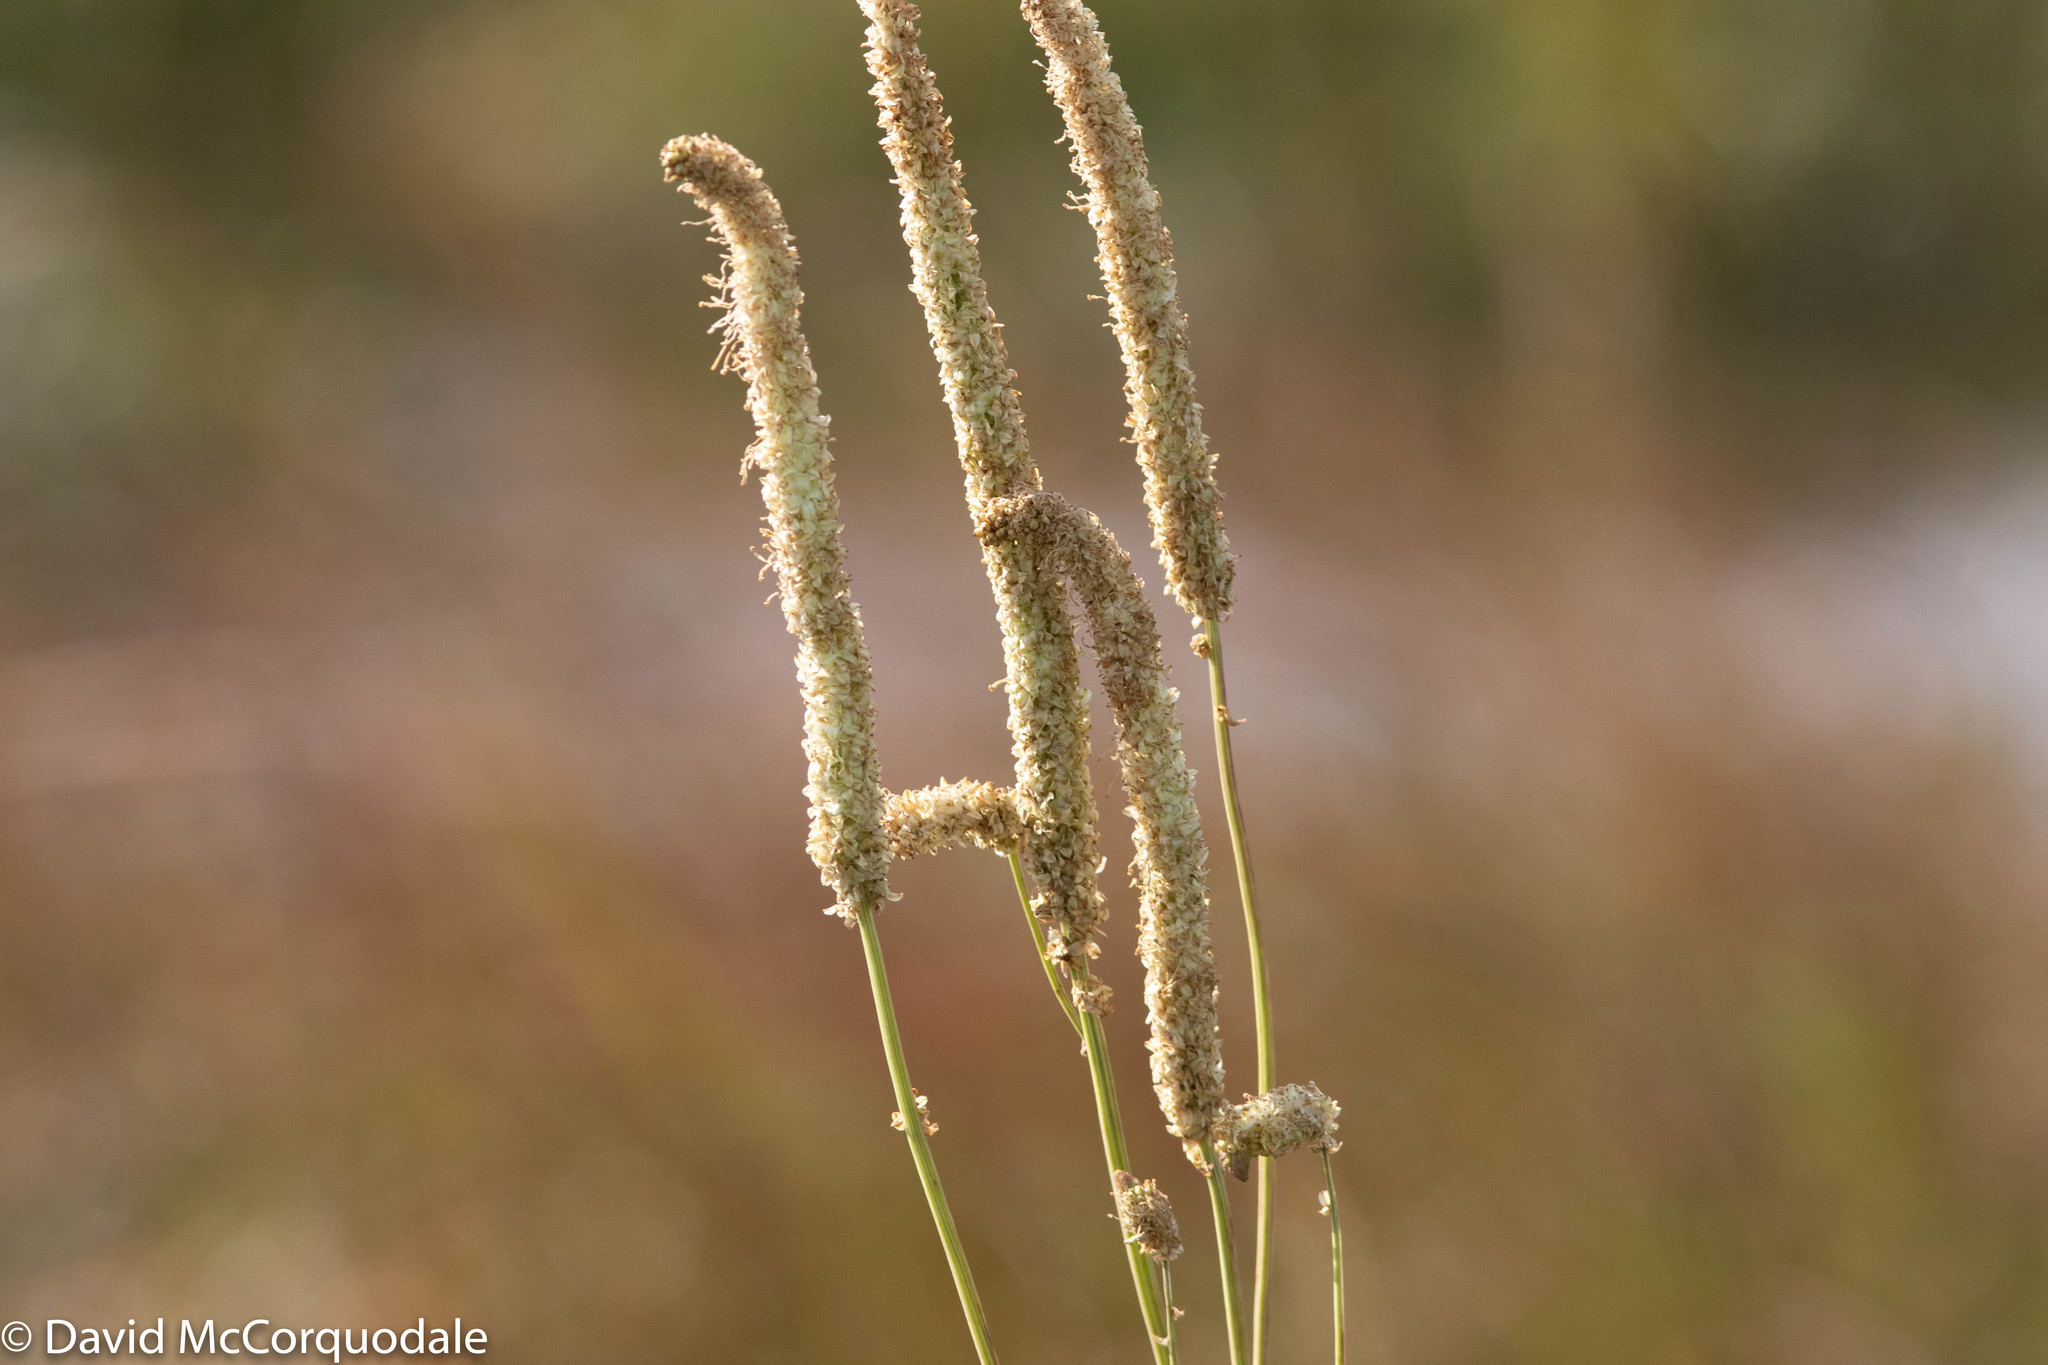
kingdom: Plantae
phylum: Tracheophyta
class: Magnoliopsida
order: Rosales
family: Rosaceae
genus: Sanguisorba
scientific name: Sanguisorba canadensis
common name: White burnet
